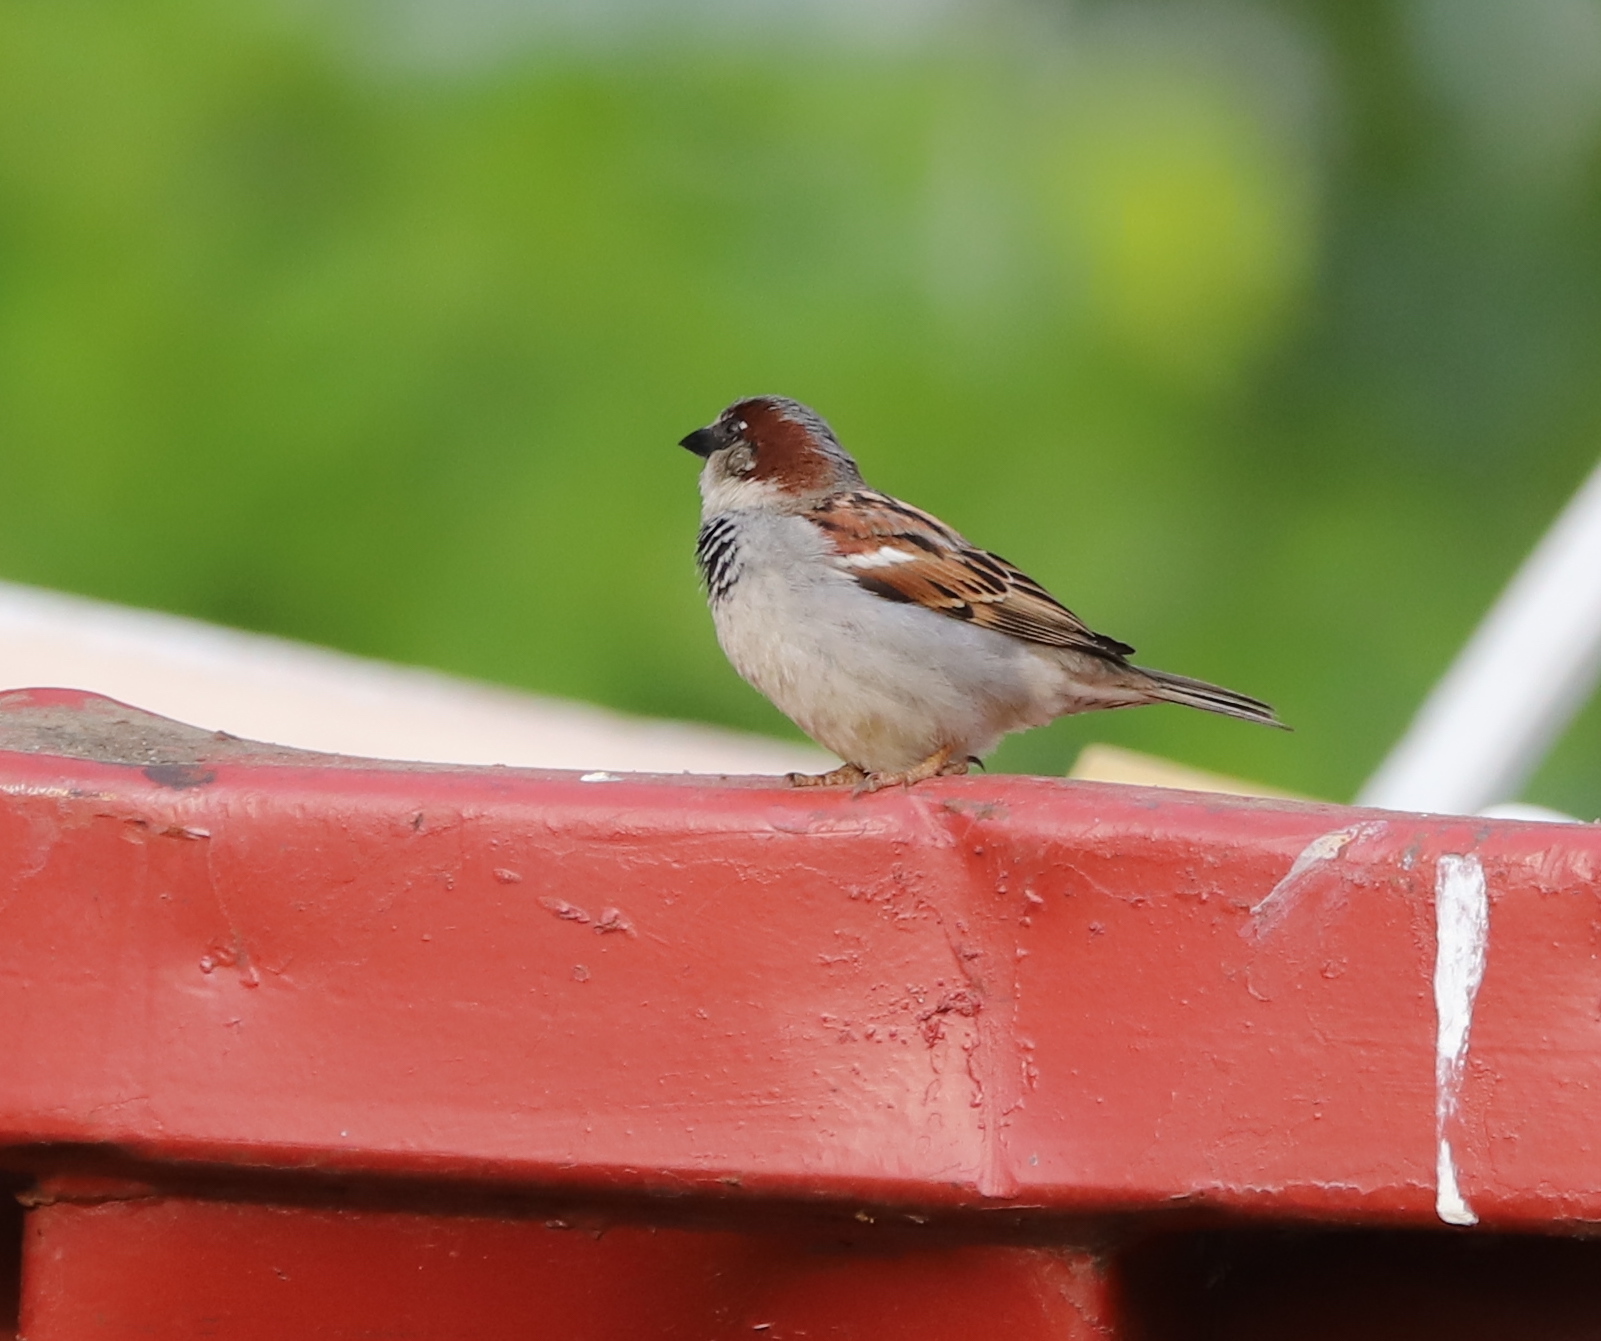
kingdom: Animalia
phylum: Chordata
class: Aves
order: Passeriformes
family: Passeridae
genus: Passer
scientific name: Passer domesticus
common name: House sparrow
